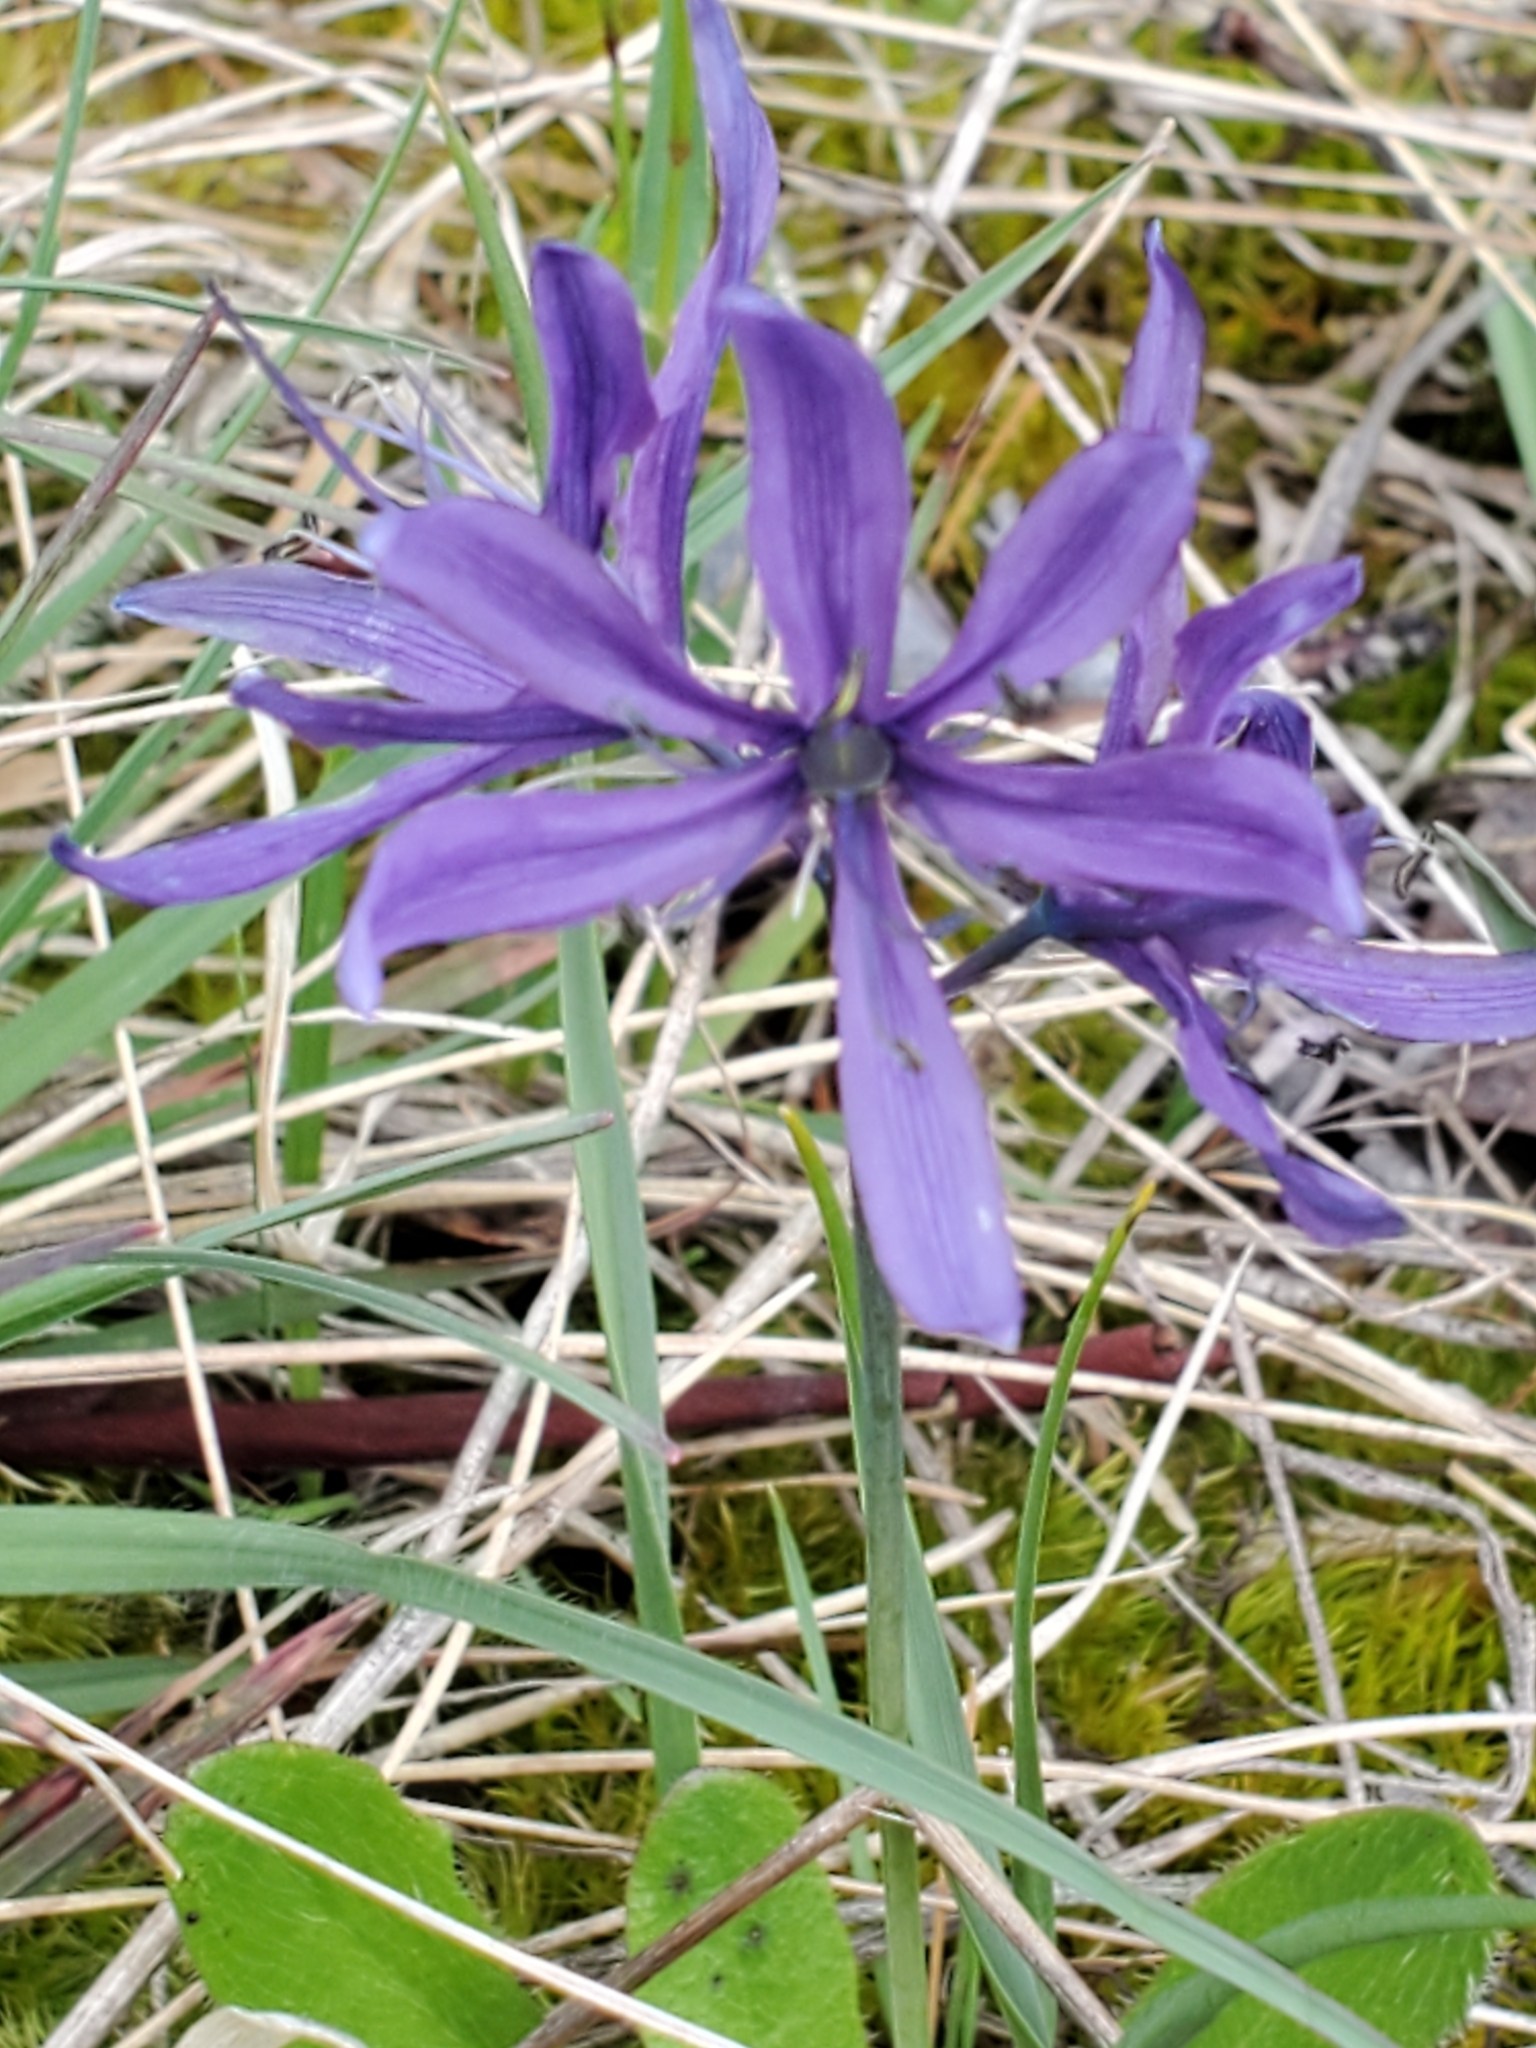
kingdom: Plantae
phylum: Tracheophyta
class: Liliopsida
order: Asparagales
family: Asparagaceae
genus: Camassia
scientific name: Camassia quamash
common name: Common camas
